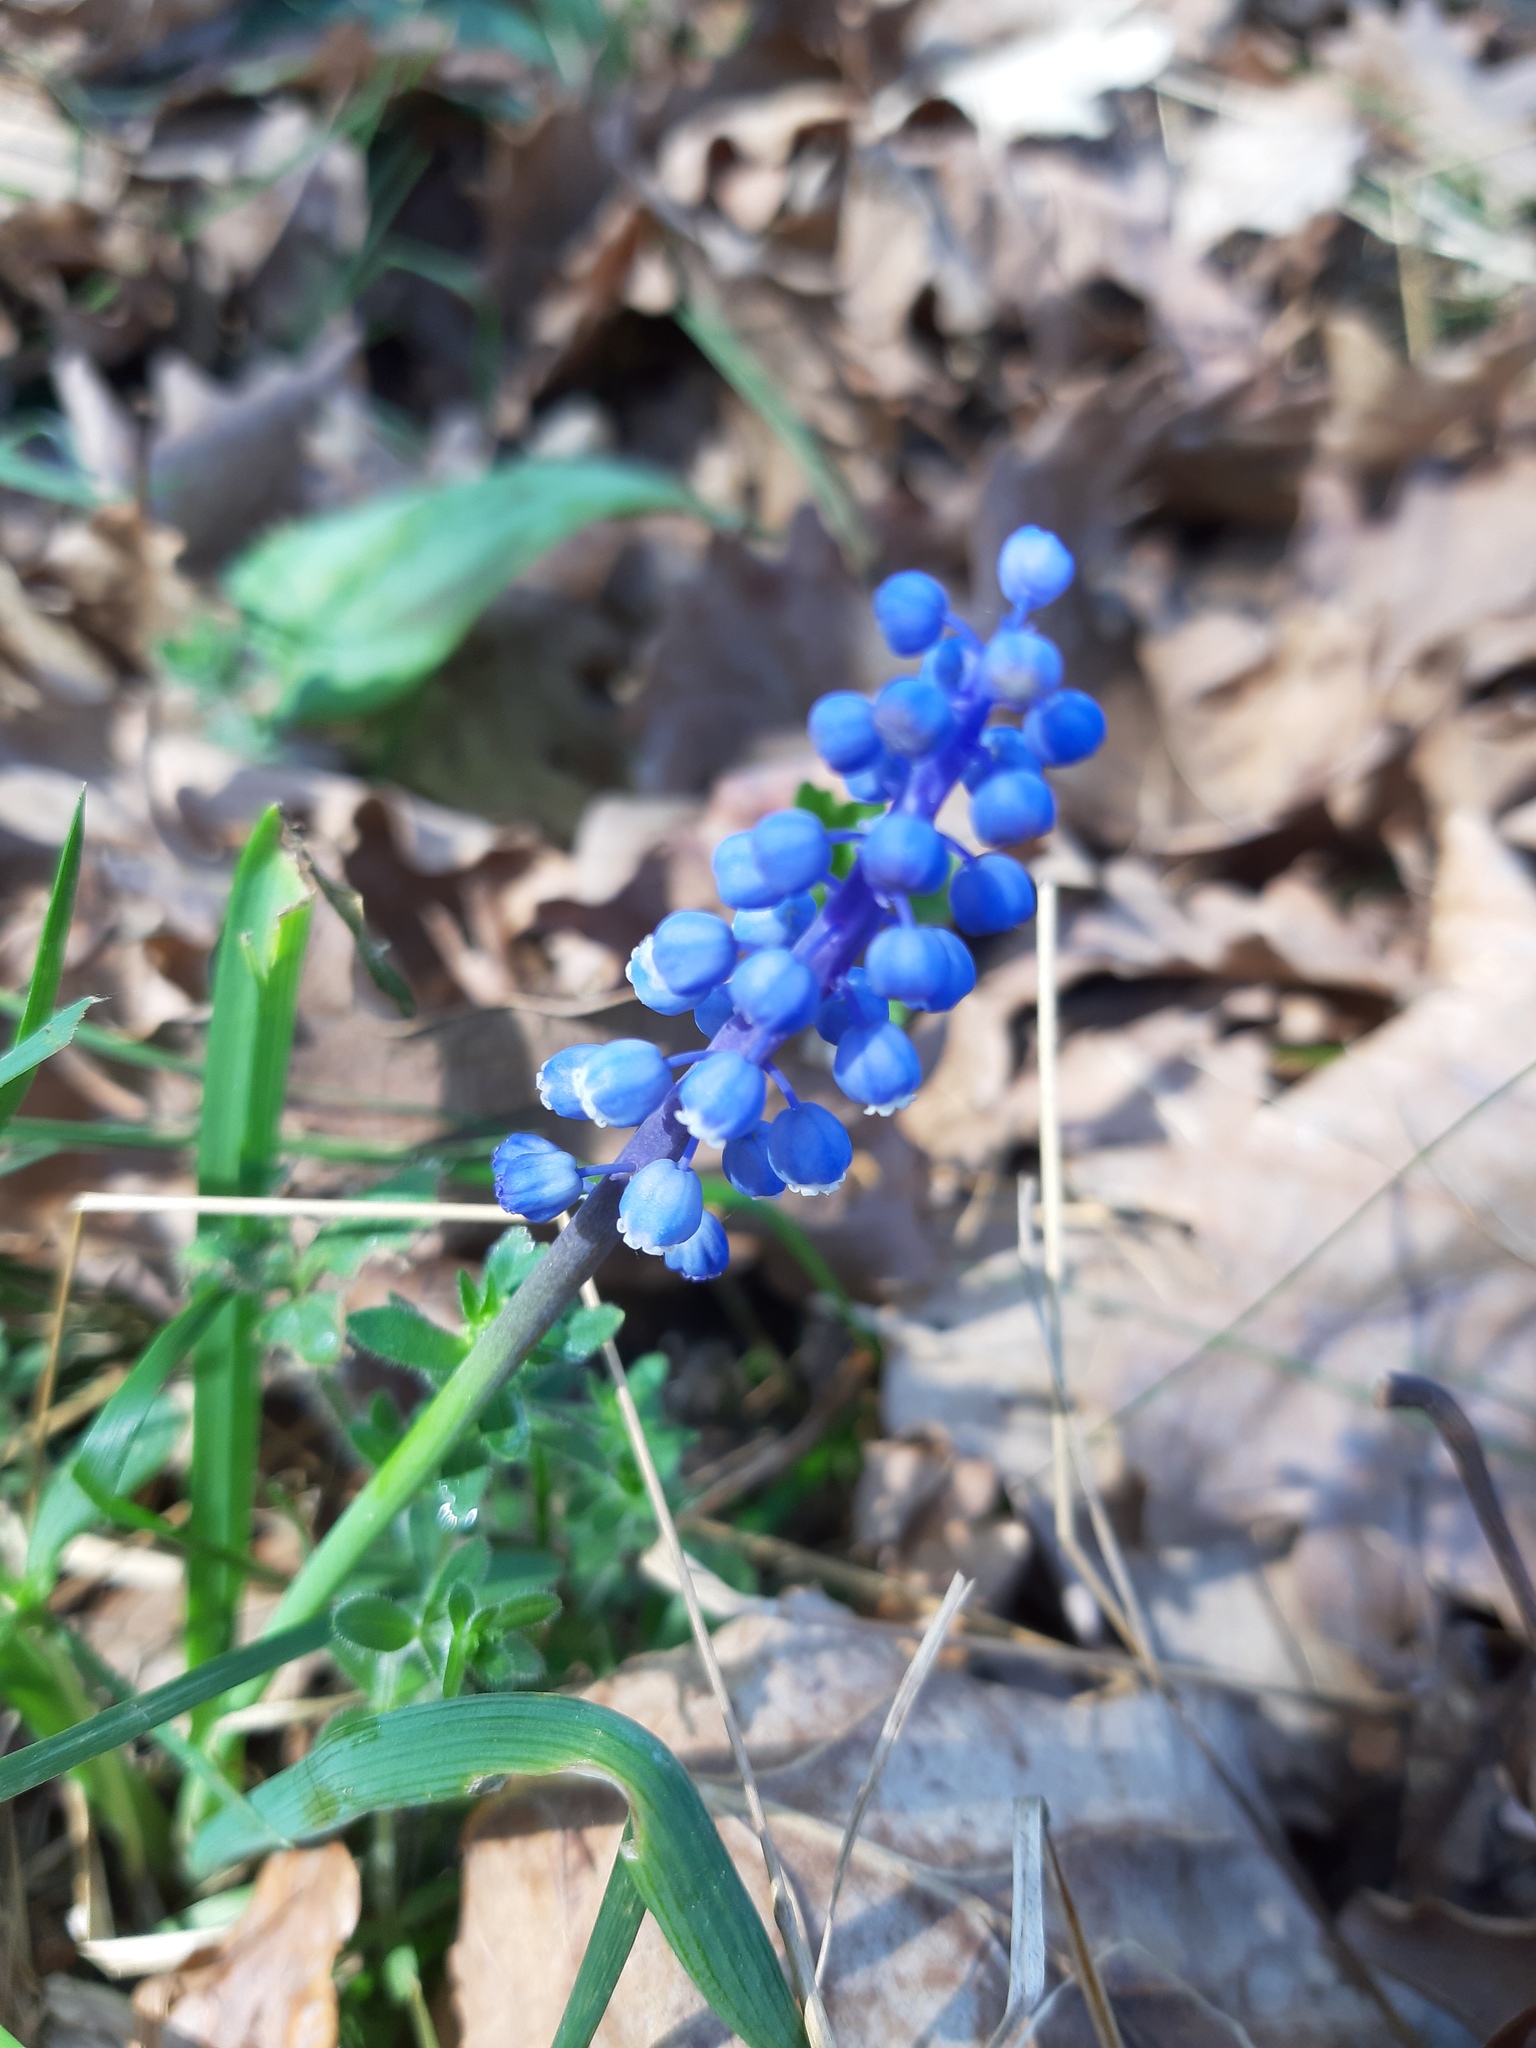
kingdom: Plantae
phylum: Tracheophyta
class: Liliopsida
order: Asparagales
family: Asparagaceae
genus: Muscari
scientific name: Muscari botryoides
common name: Compact grape-hyacinth
